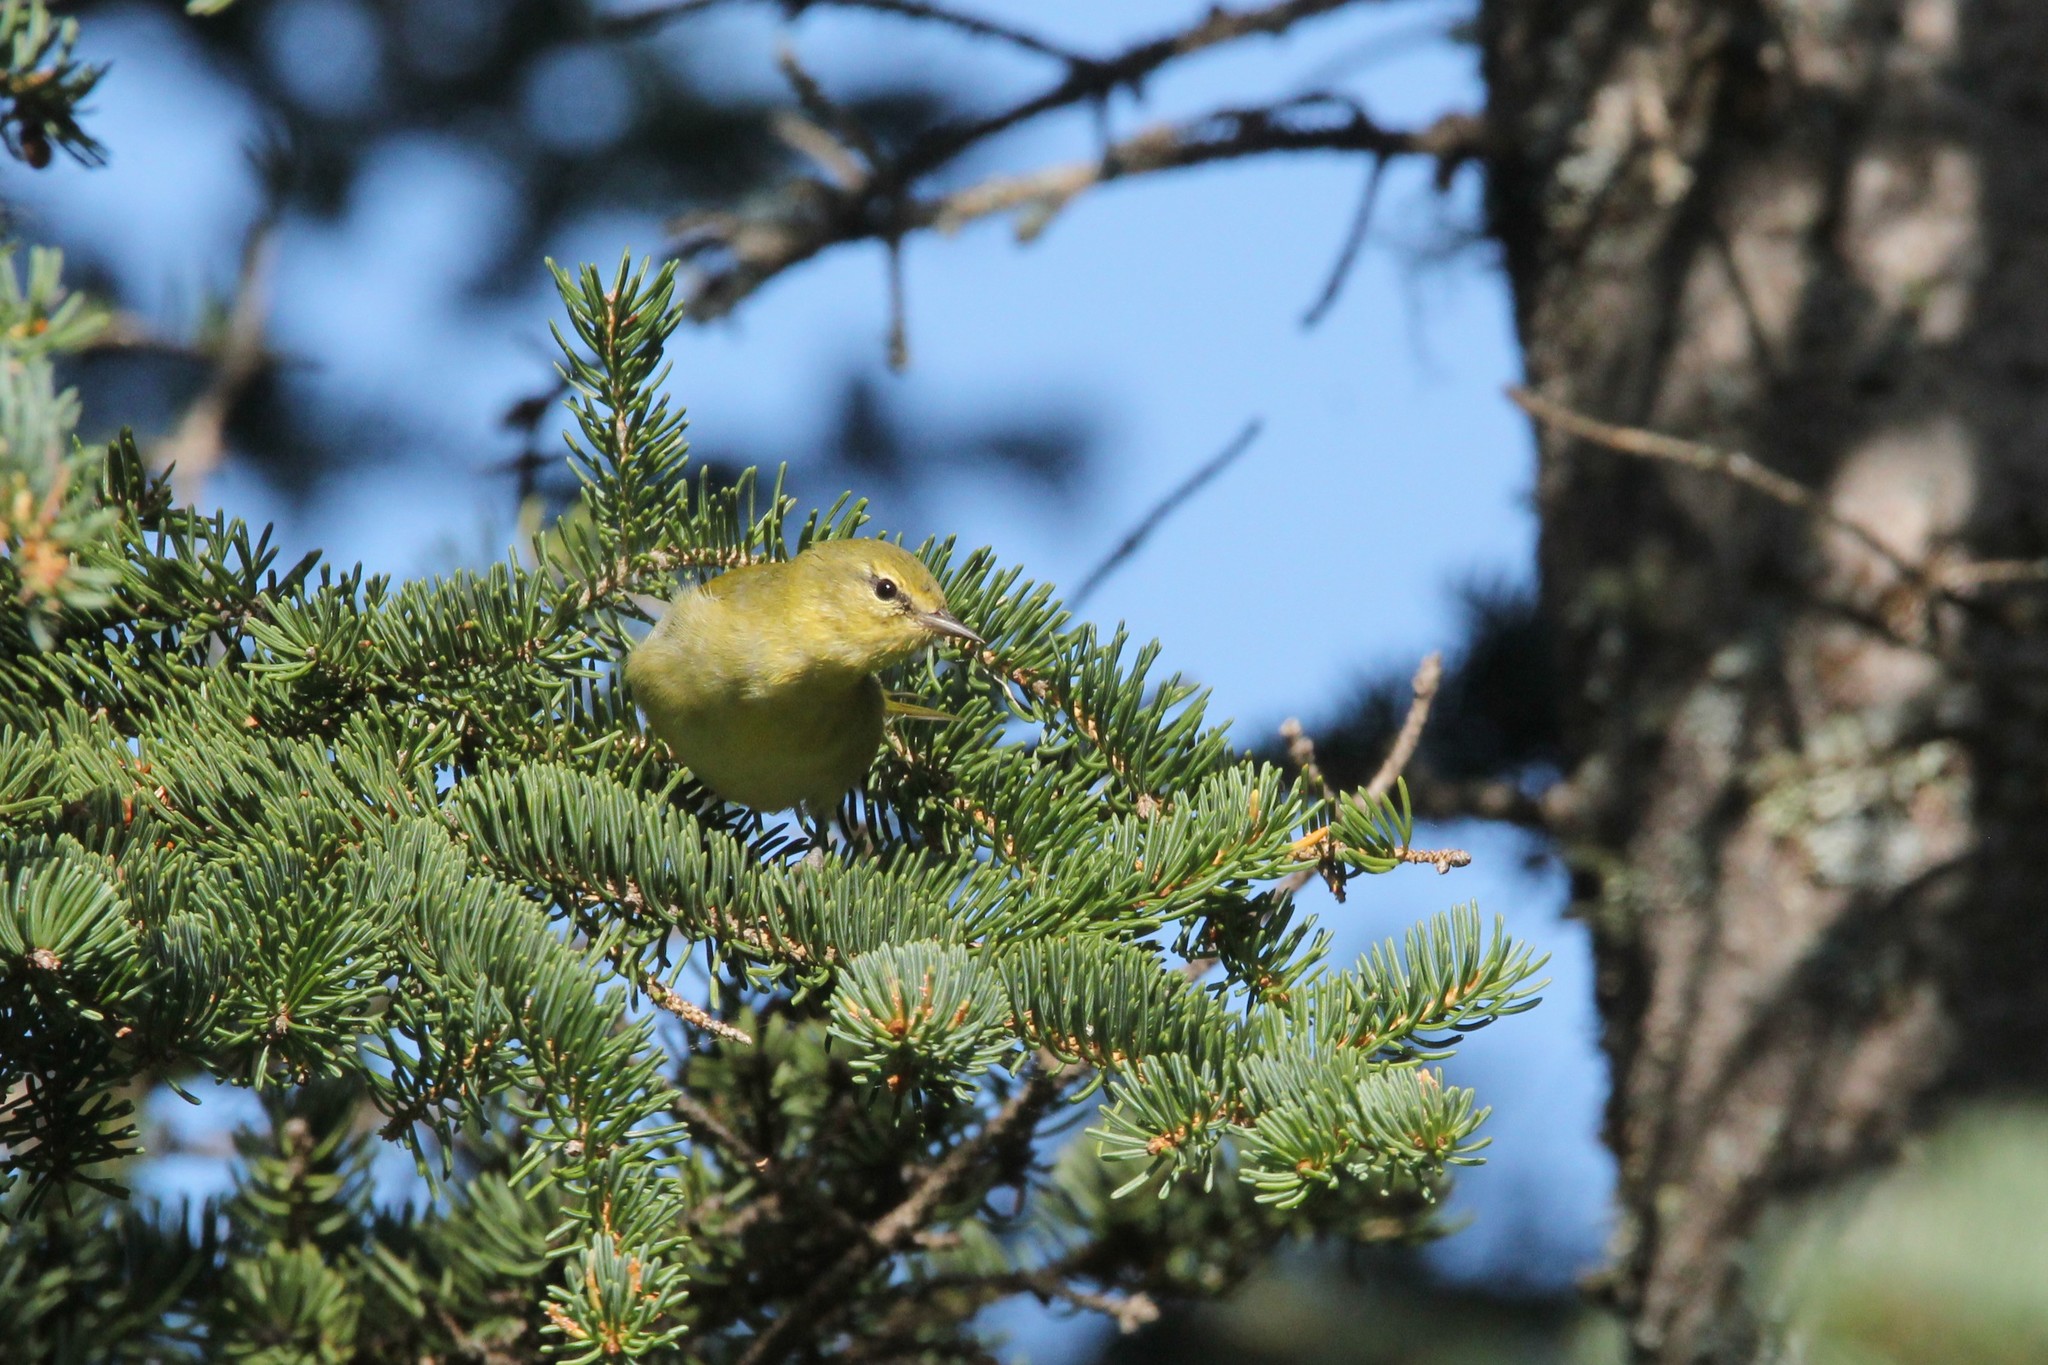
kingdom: Animalia
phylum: Chordata
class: Aves
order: Passeriformes
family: Parulidae
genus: Leiothlypis
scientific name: Leiothlypis peregrina
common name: Tennessee warbler
